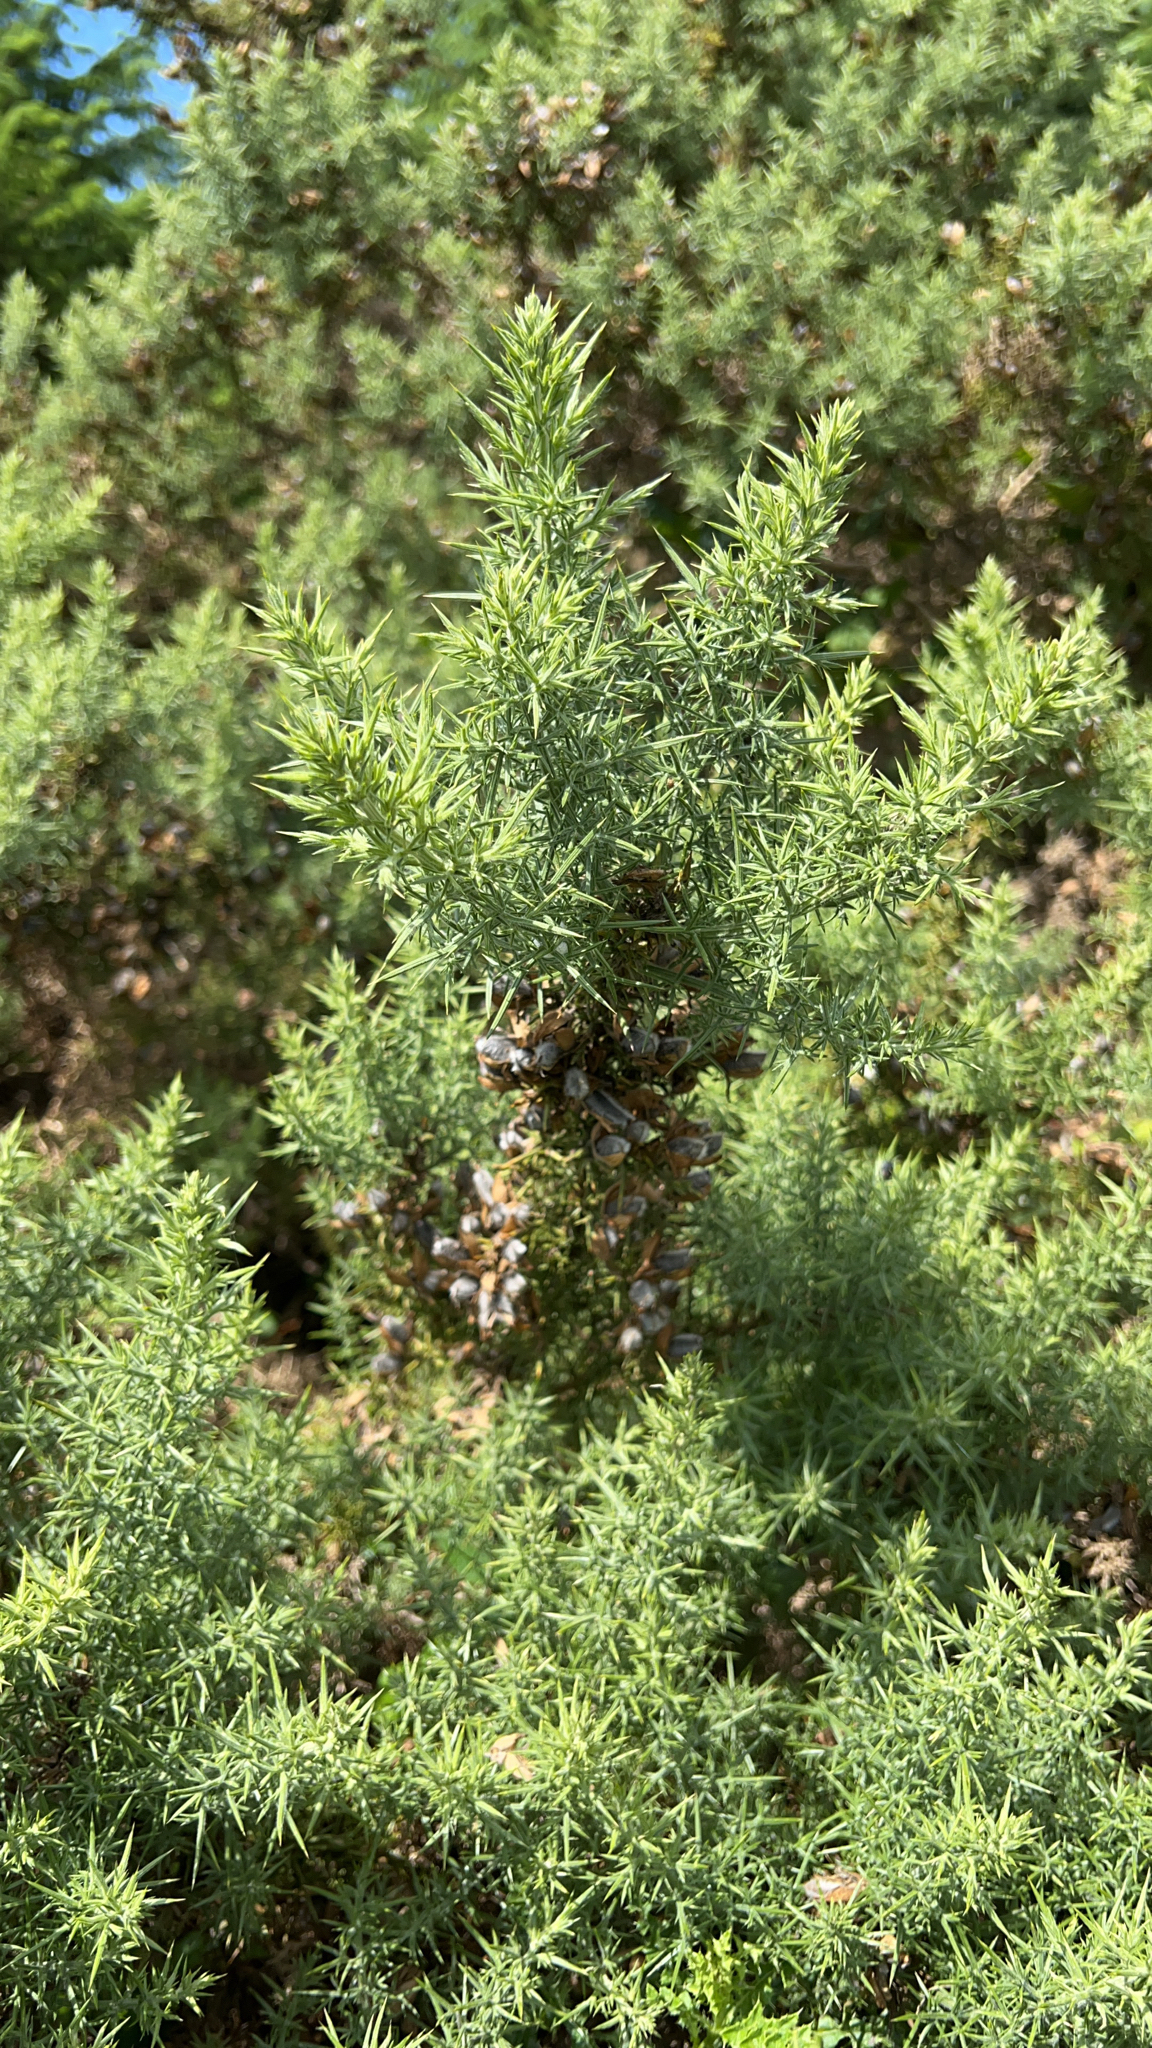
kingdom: Plantae
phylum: Tracheophyta
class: Magnoliopsida
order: Fabales
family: Fabaceae
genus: Ulex
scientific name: Ulex europaeus
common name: Common gorse
